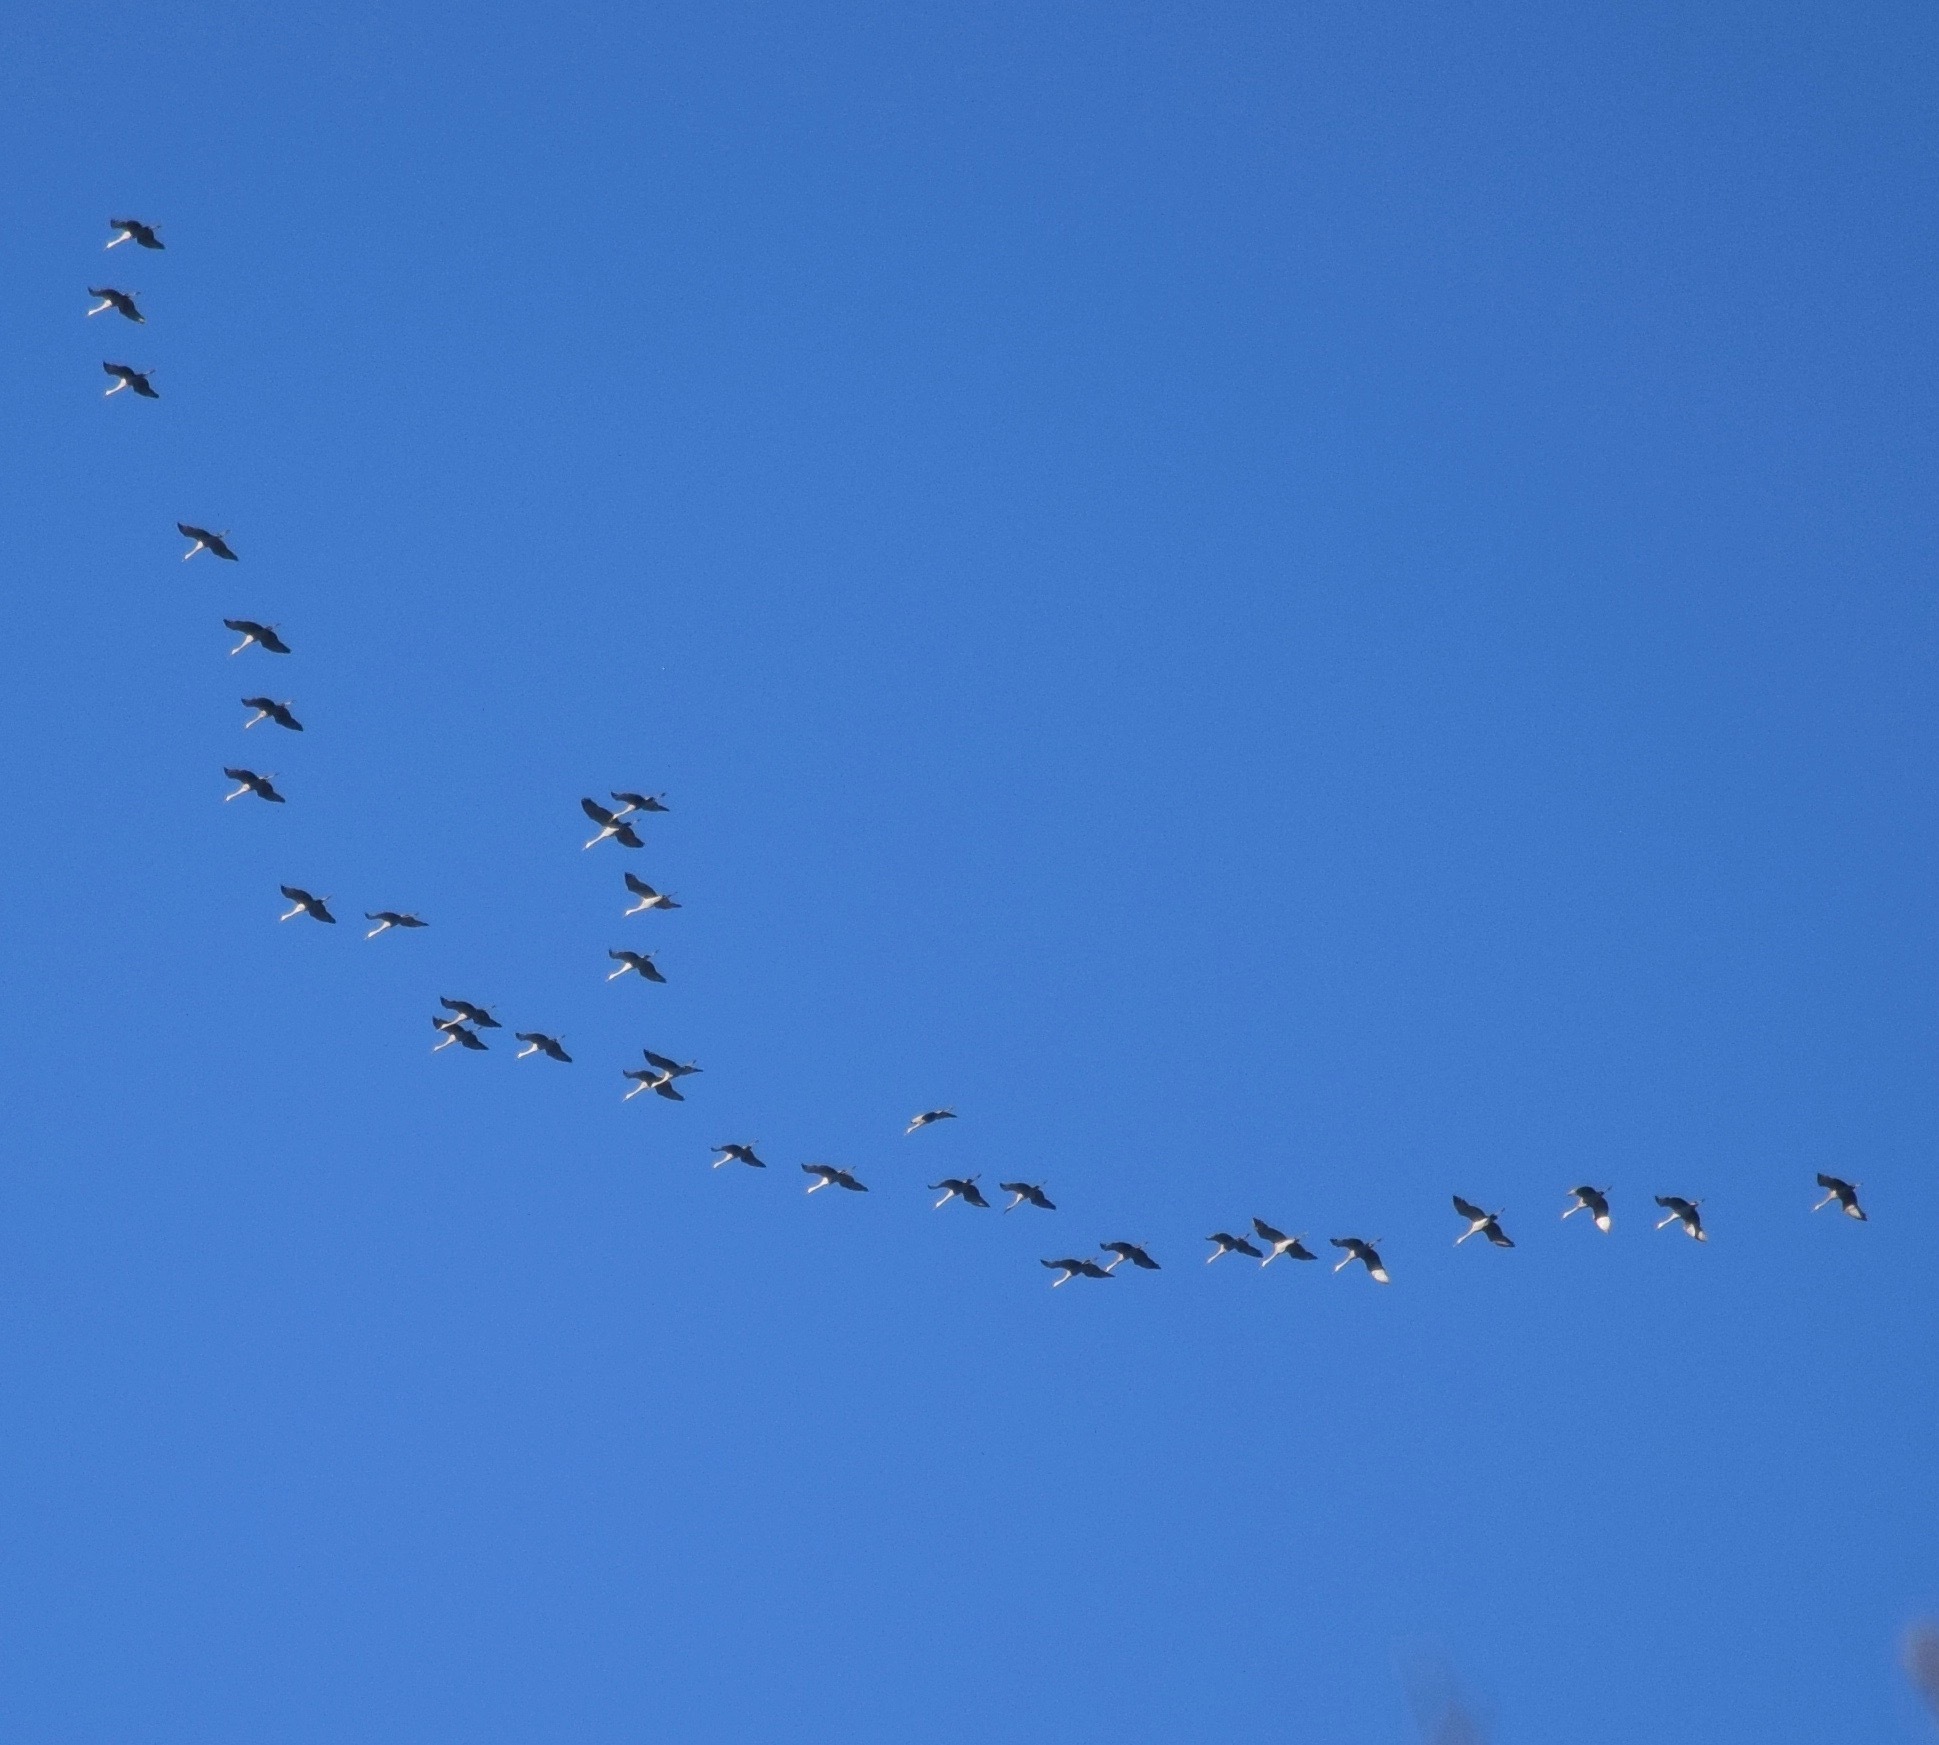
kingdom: Animalia
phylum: Chordata
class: Aves
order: Gruiformes
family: Gruidae
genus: Grus
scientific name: Grus canadensis
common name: Sandhill crane
